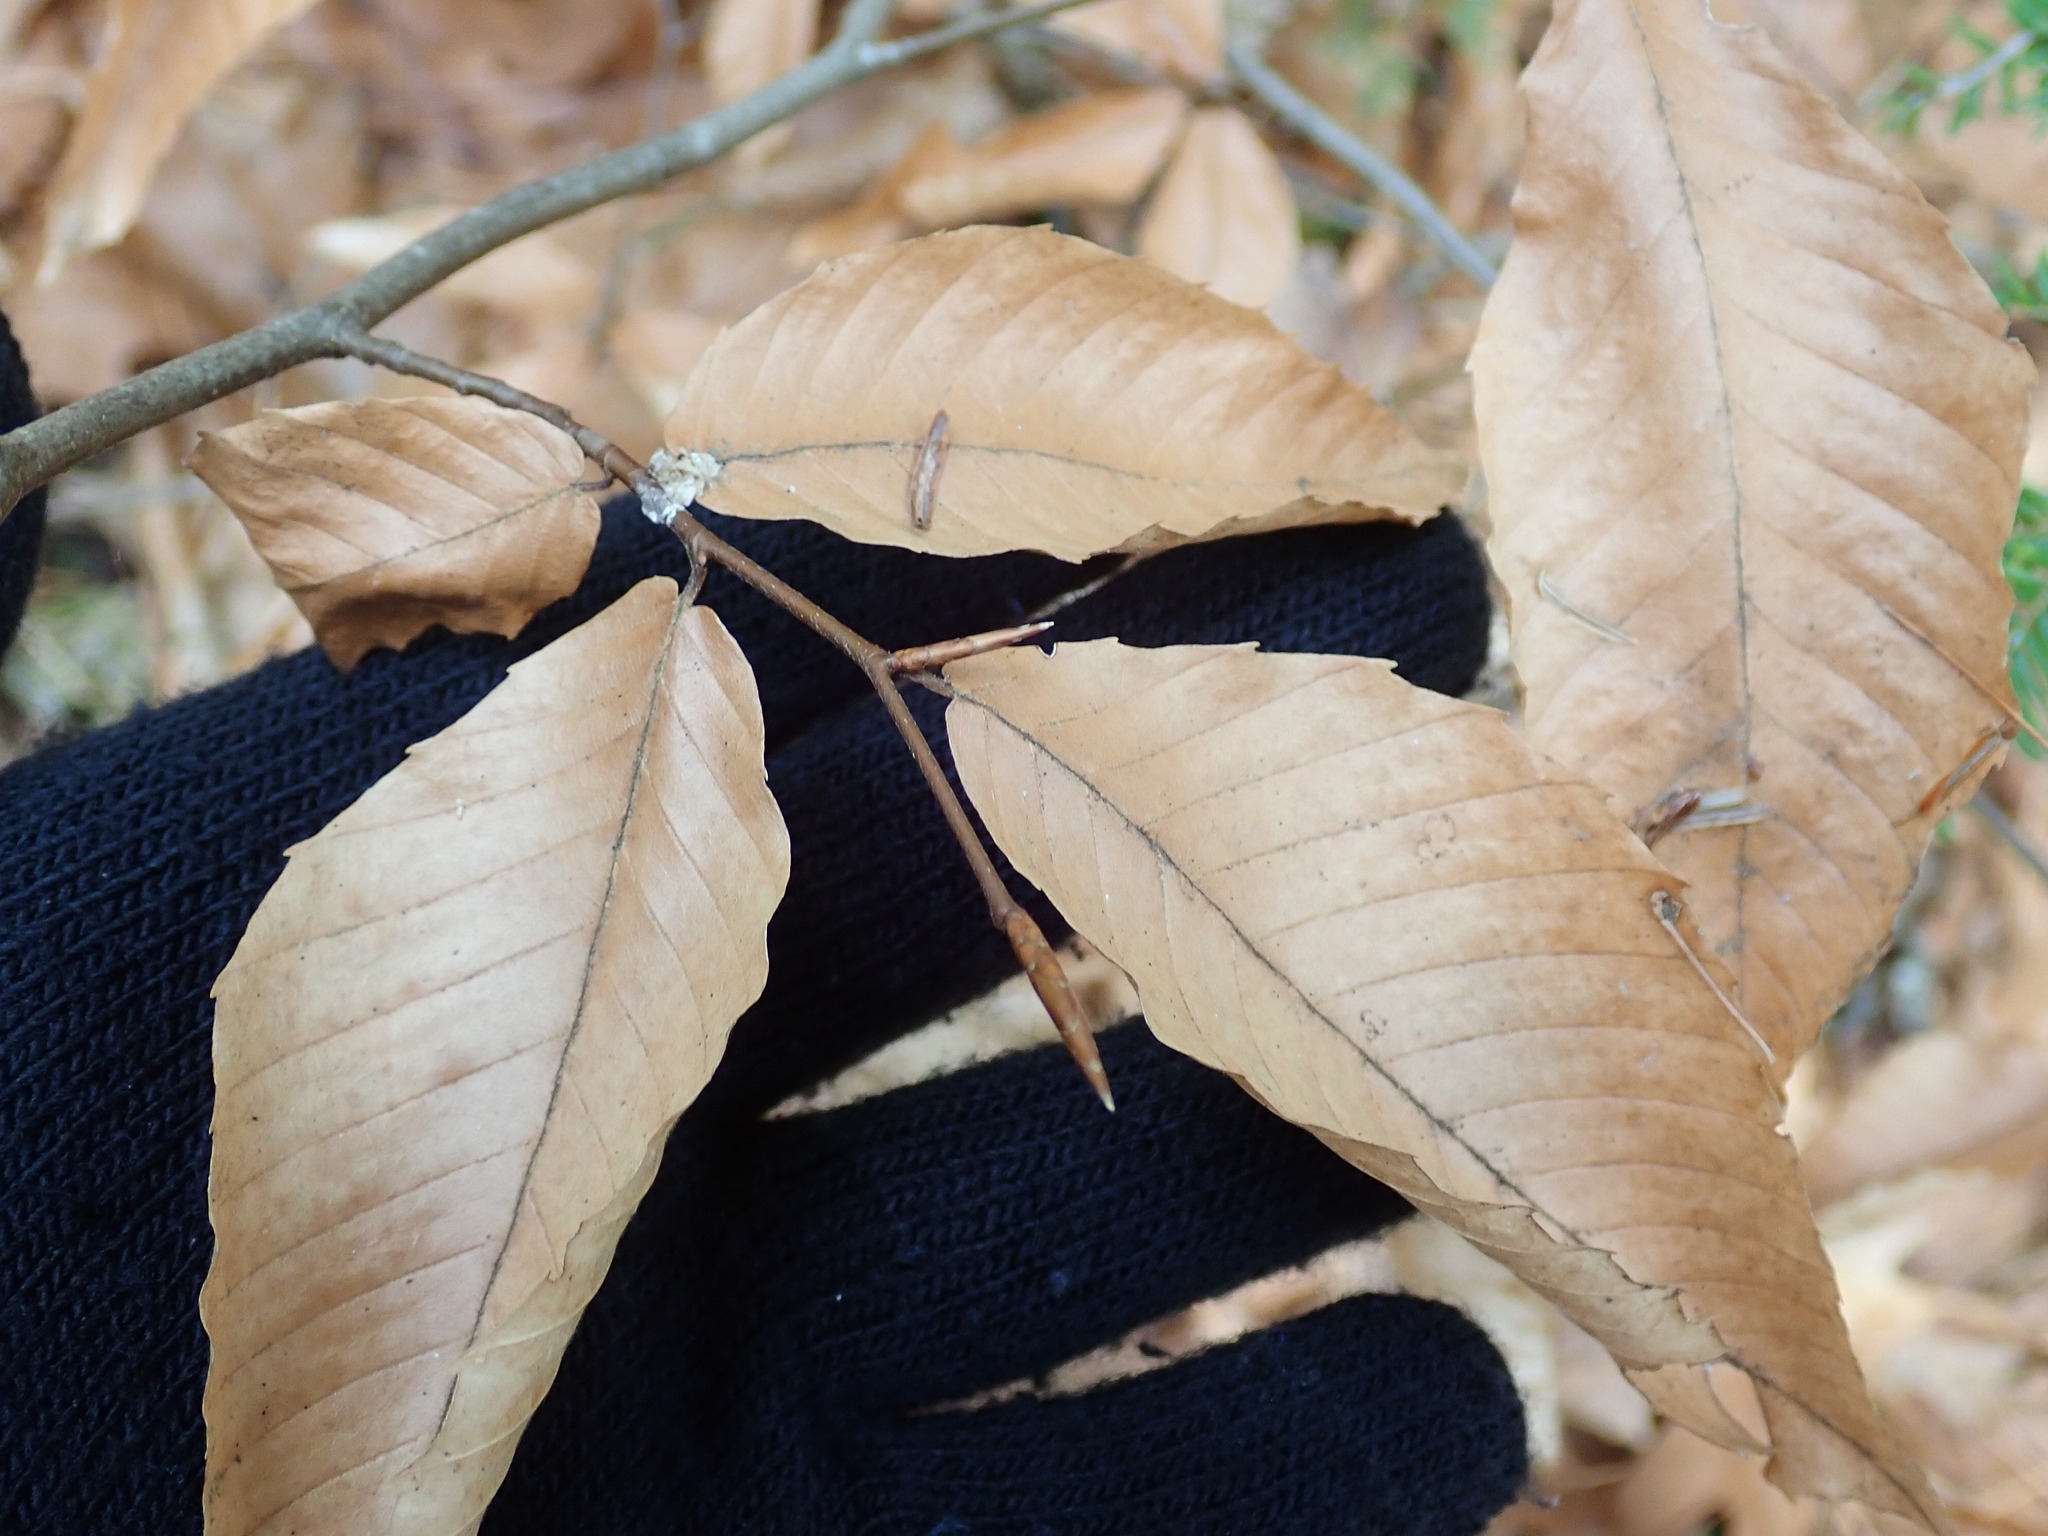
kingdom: Plantae
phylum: Tracheophyta
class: Magnoliopsida
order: Fagales
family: Fagaceae
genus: Fagus
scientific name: Fagus grandifolia
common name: American beech
